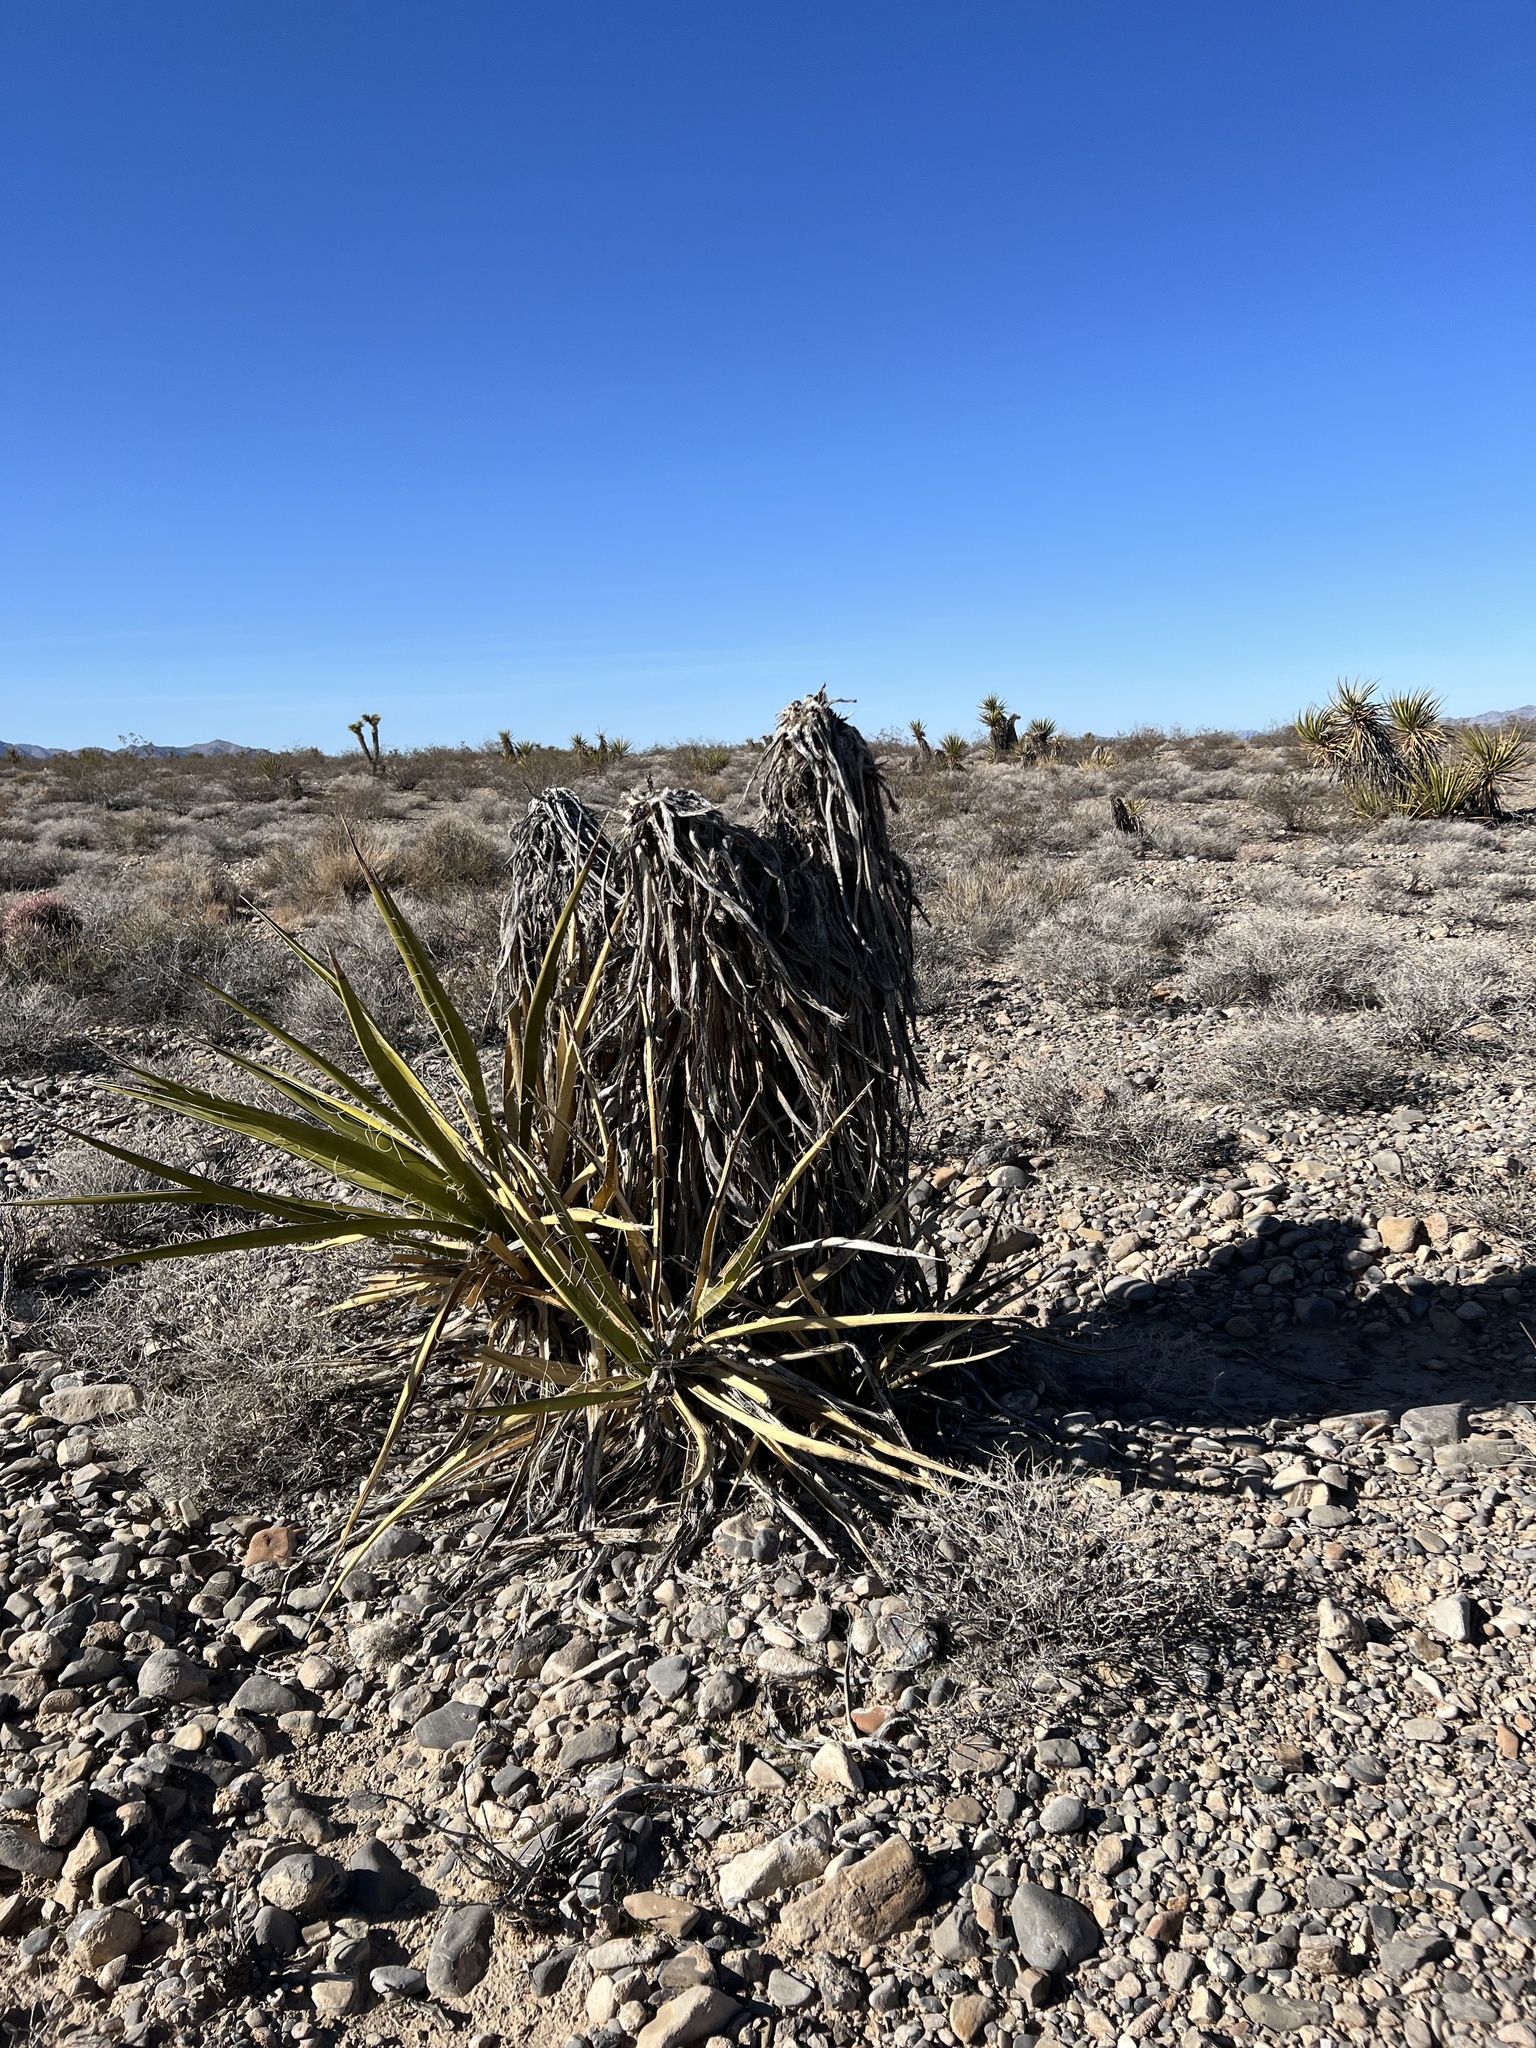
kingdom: Plantae
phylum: Tracheophyta
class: Liliopsida
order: Asparagales
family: Asparagaceae
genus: Yucca
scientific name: Yucca schidigera
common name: Mojave yucca
